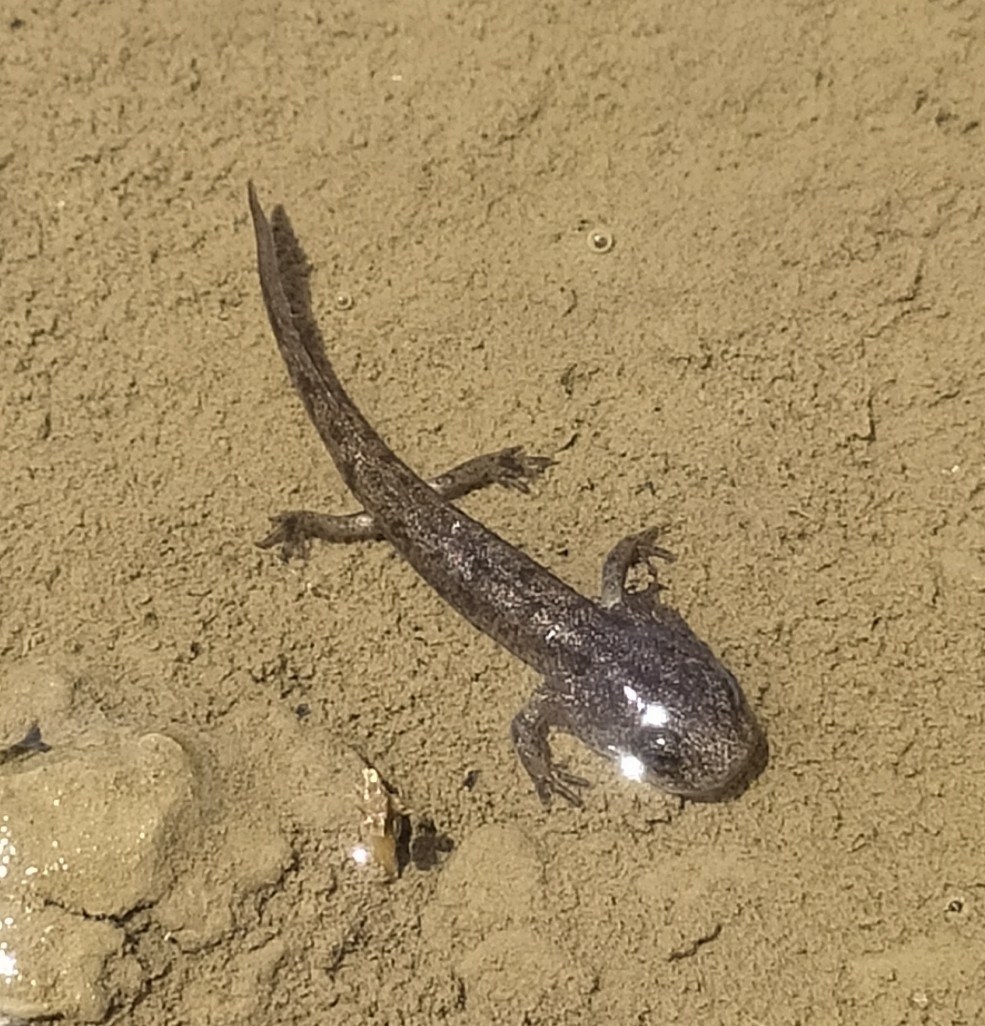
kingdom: Animalia
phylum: Chordata
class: Amphibia
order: Caudata
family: Salamandridae
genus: Salamandra
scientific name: Salamandra salamandra
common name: Fire salamander
